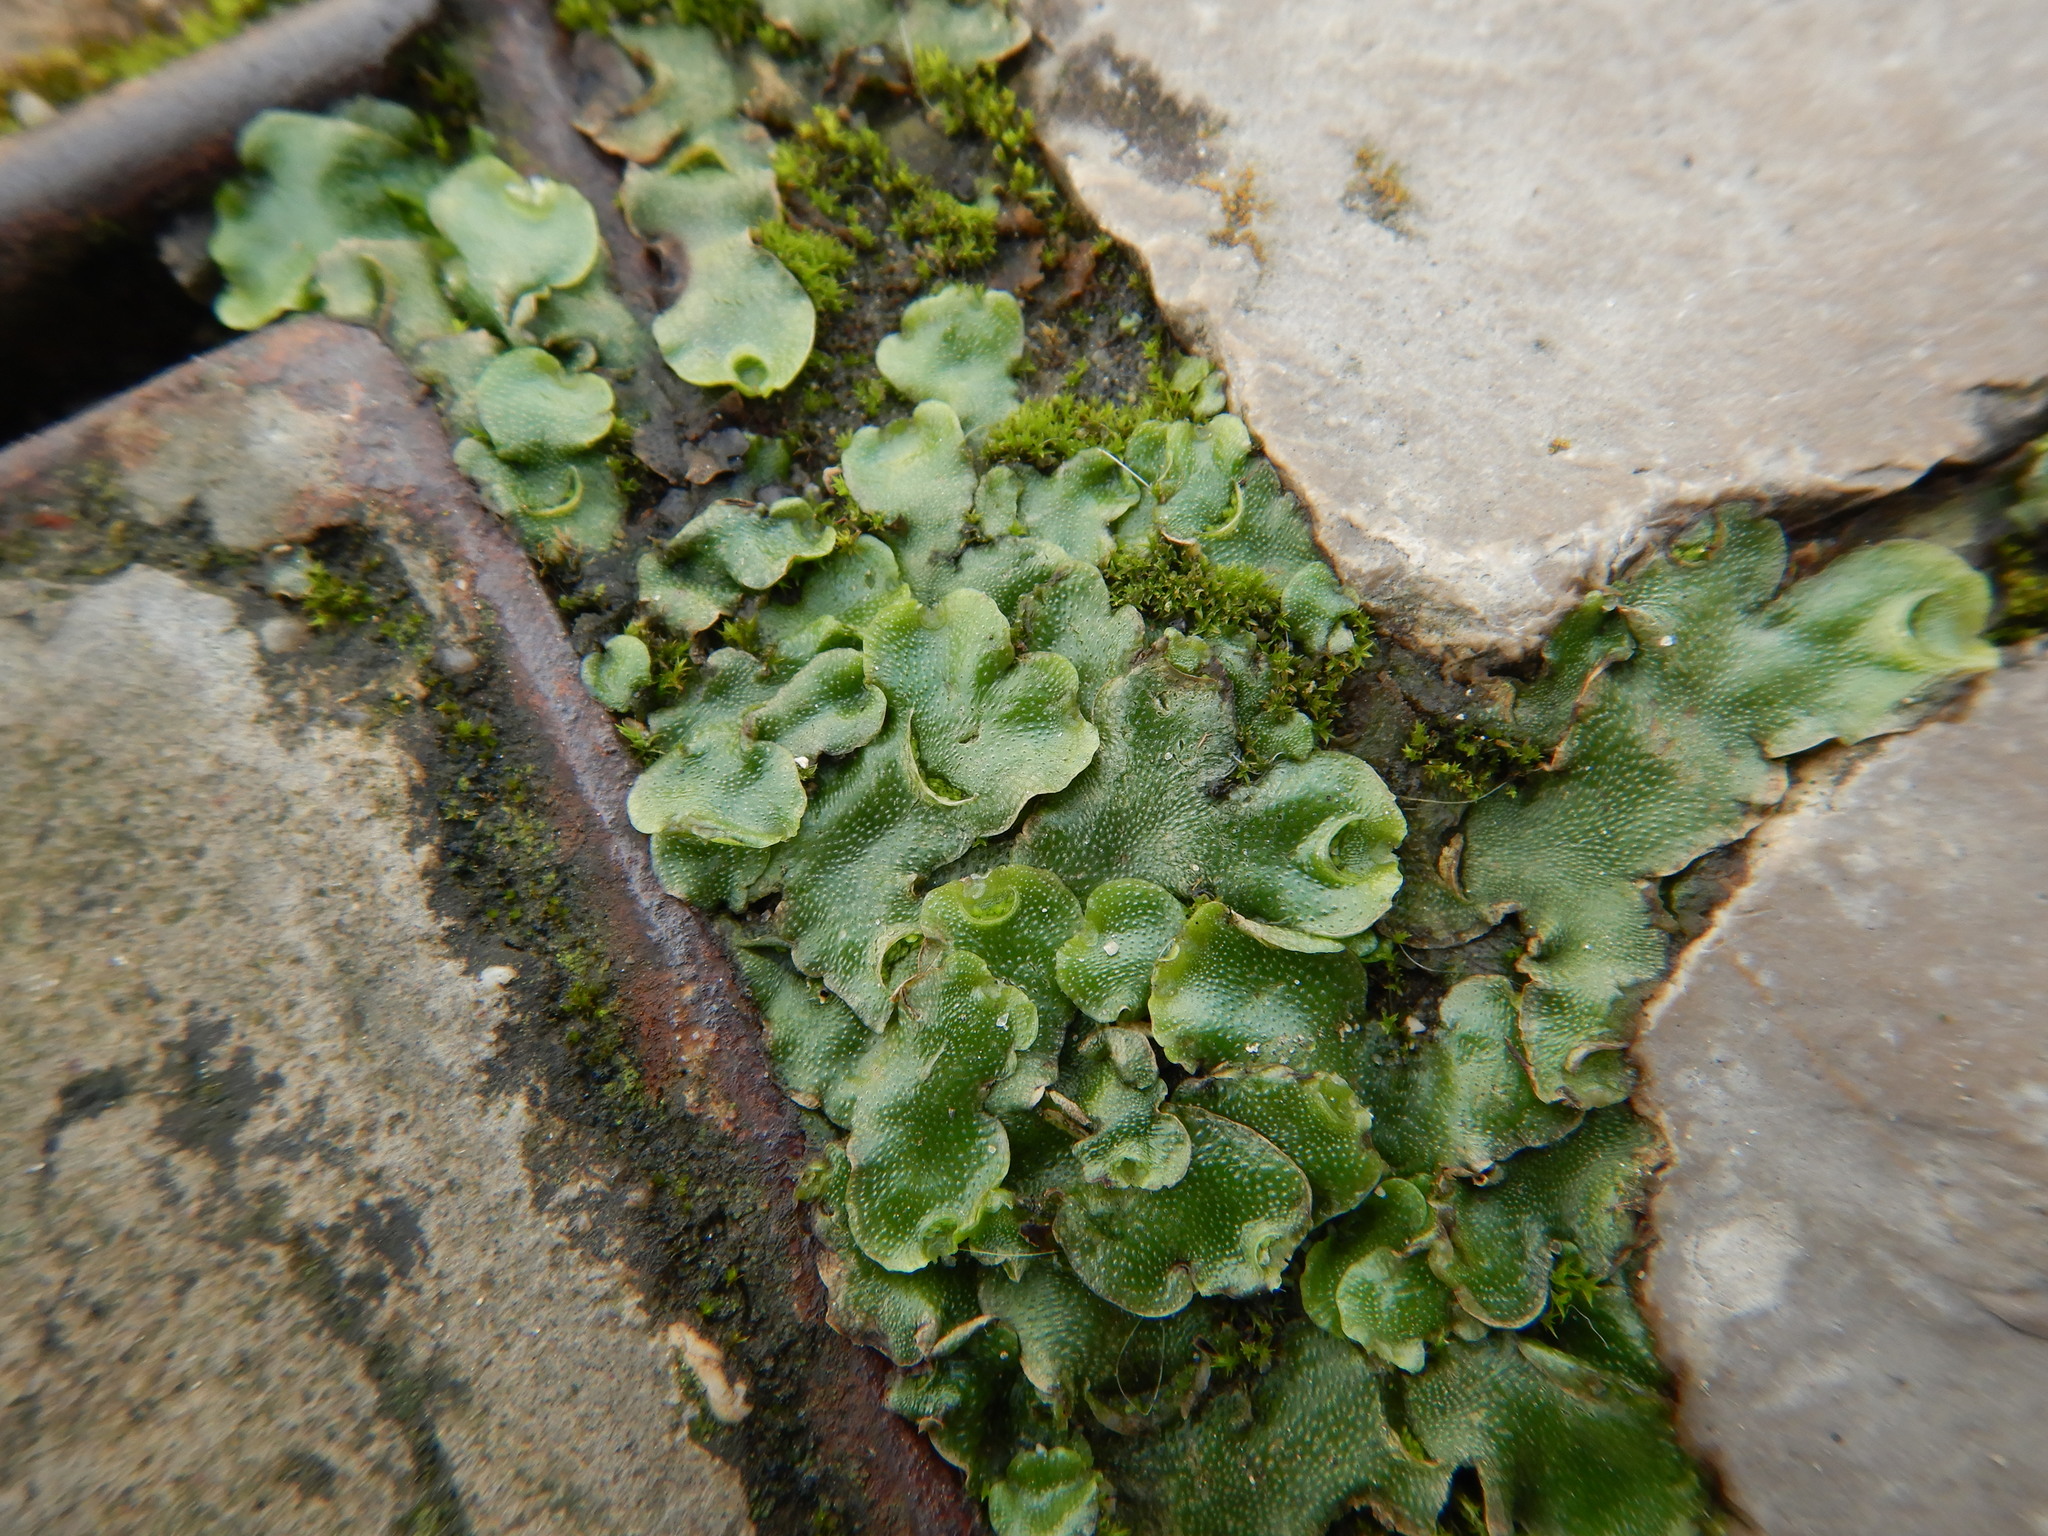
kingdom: Plantae
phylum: Marchantiophyta
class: Marchantiopsida
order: Lunulariales
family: Lunulariaceae
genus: Lunularia
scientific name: Lunularia cruciata
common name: Crescent-cup liverwort
